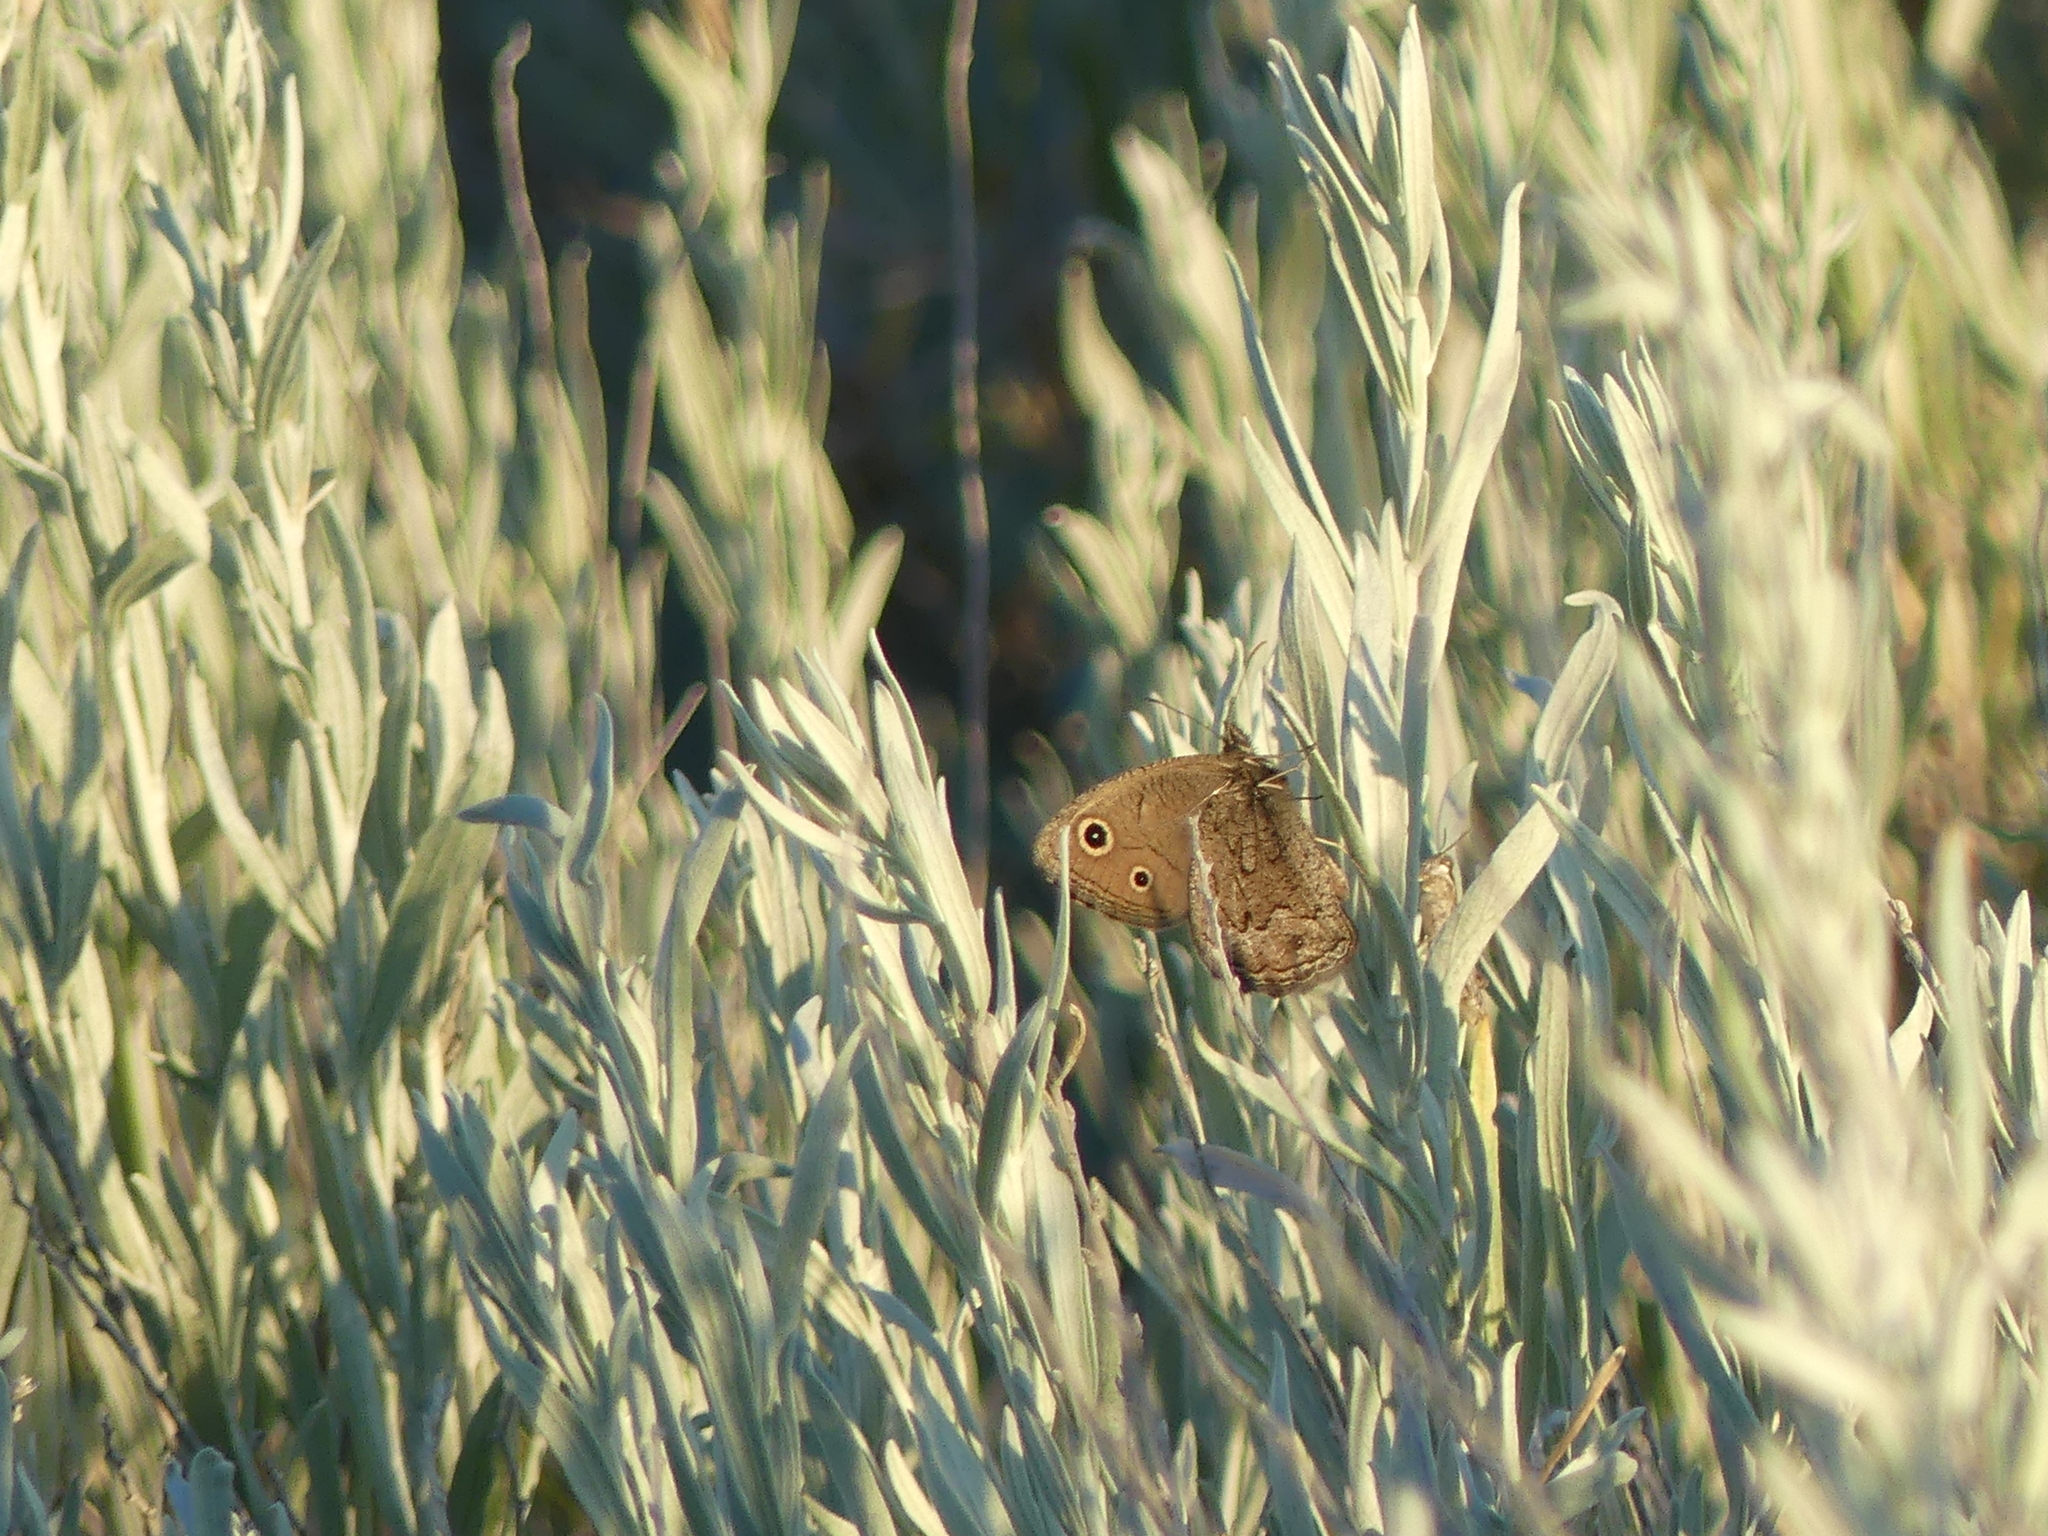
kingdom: Animalia
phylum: Arthropoda
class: Insecta
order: Lepidoptera
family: Nymphalidae
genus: Cercyonis
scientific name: Cercyonis oetus
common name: Small wood-nymph
